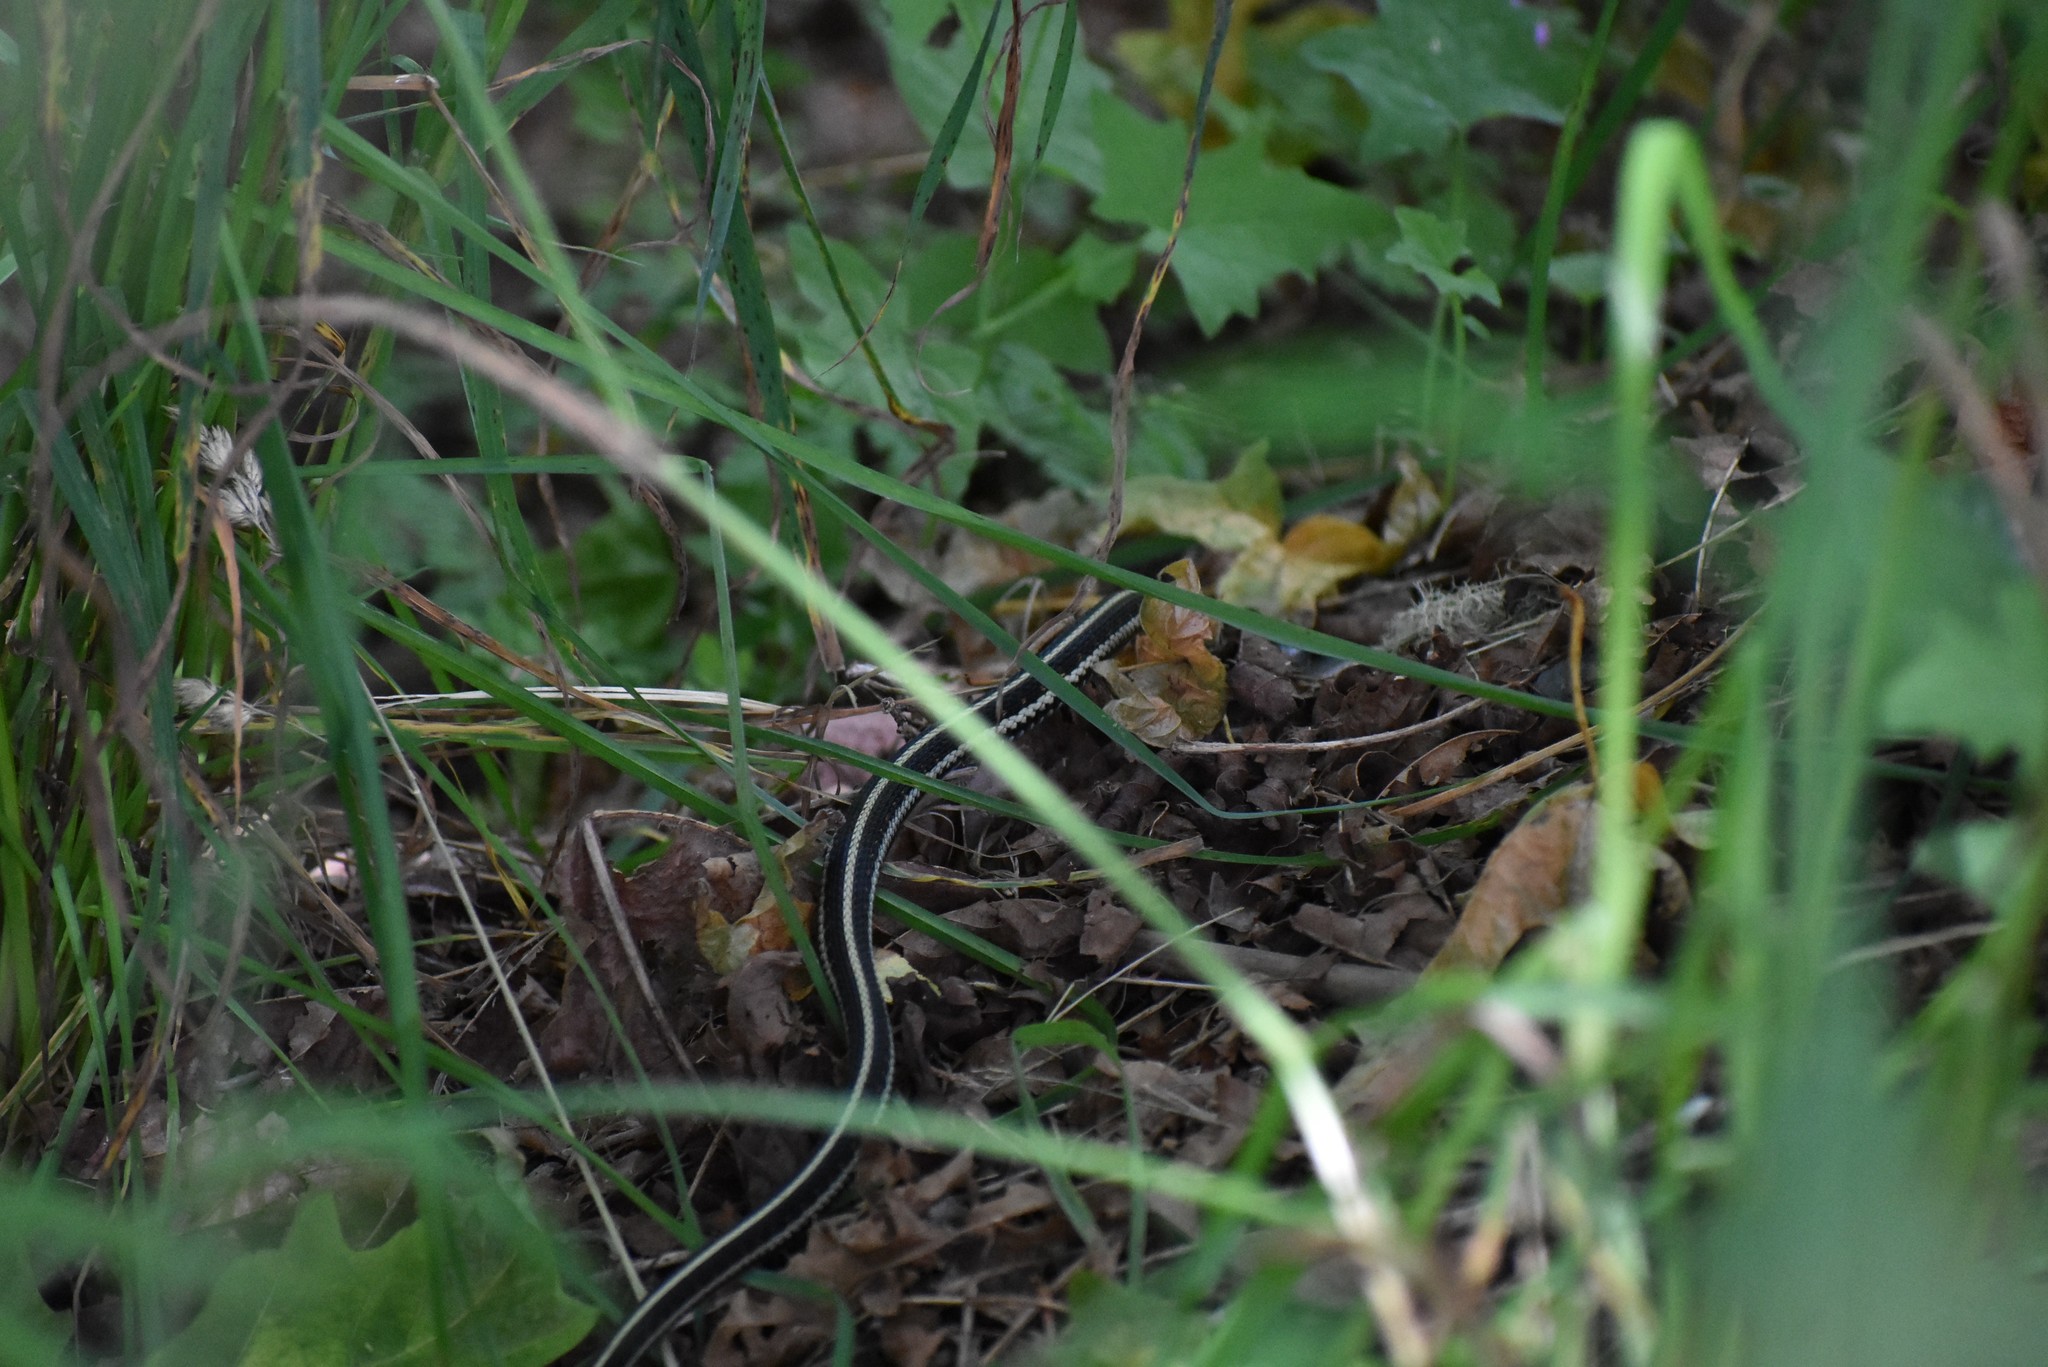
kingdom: Animalia
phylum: Chordata
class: Squamata
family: Colubridae
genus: Thamnophis
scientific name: Thamnophis sirtalis
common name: Common garter snake
